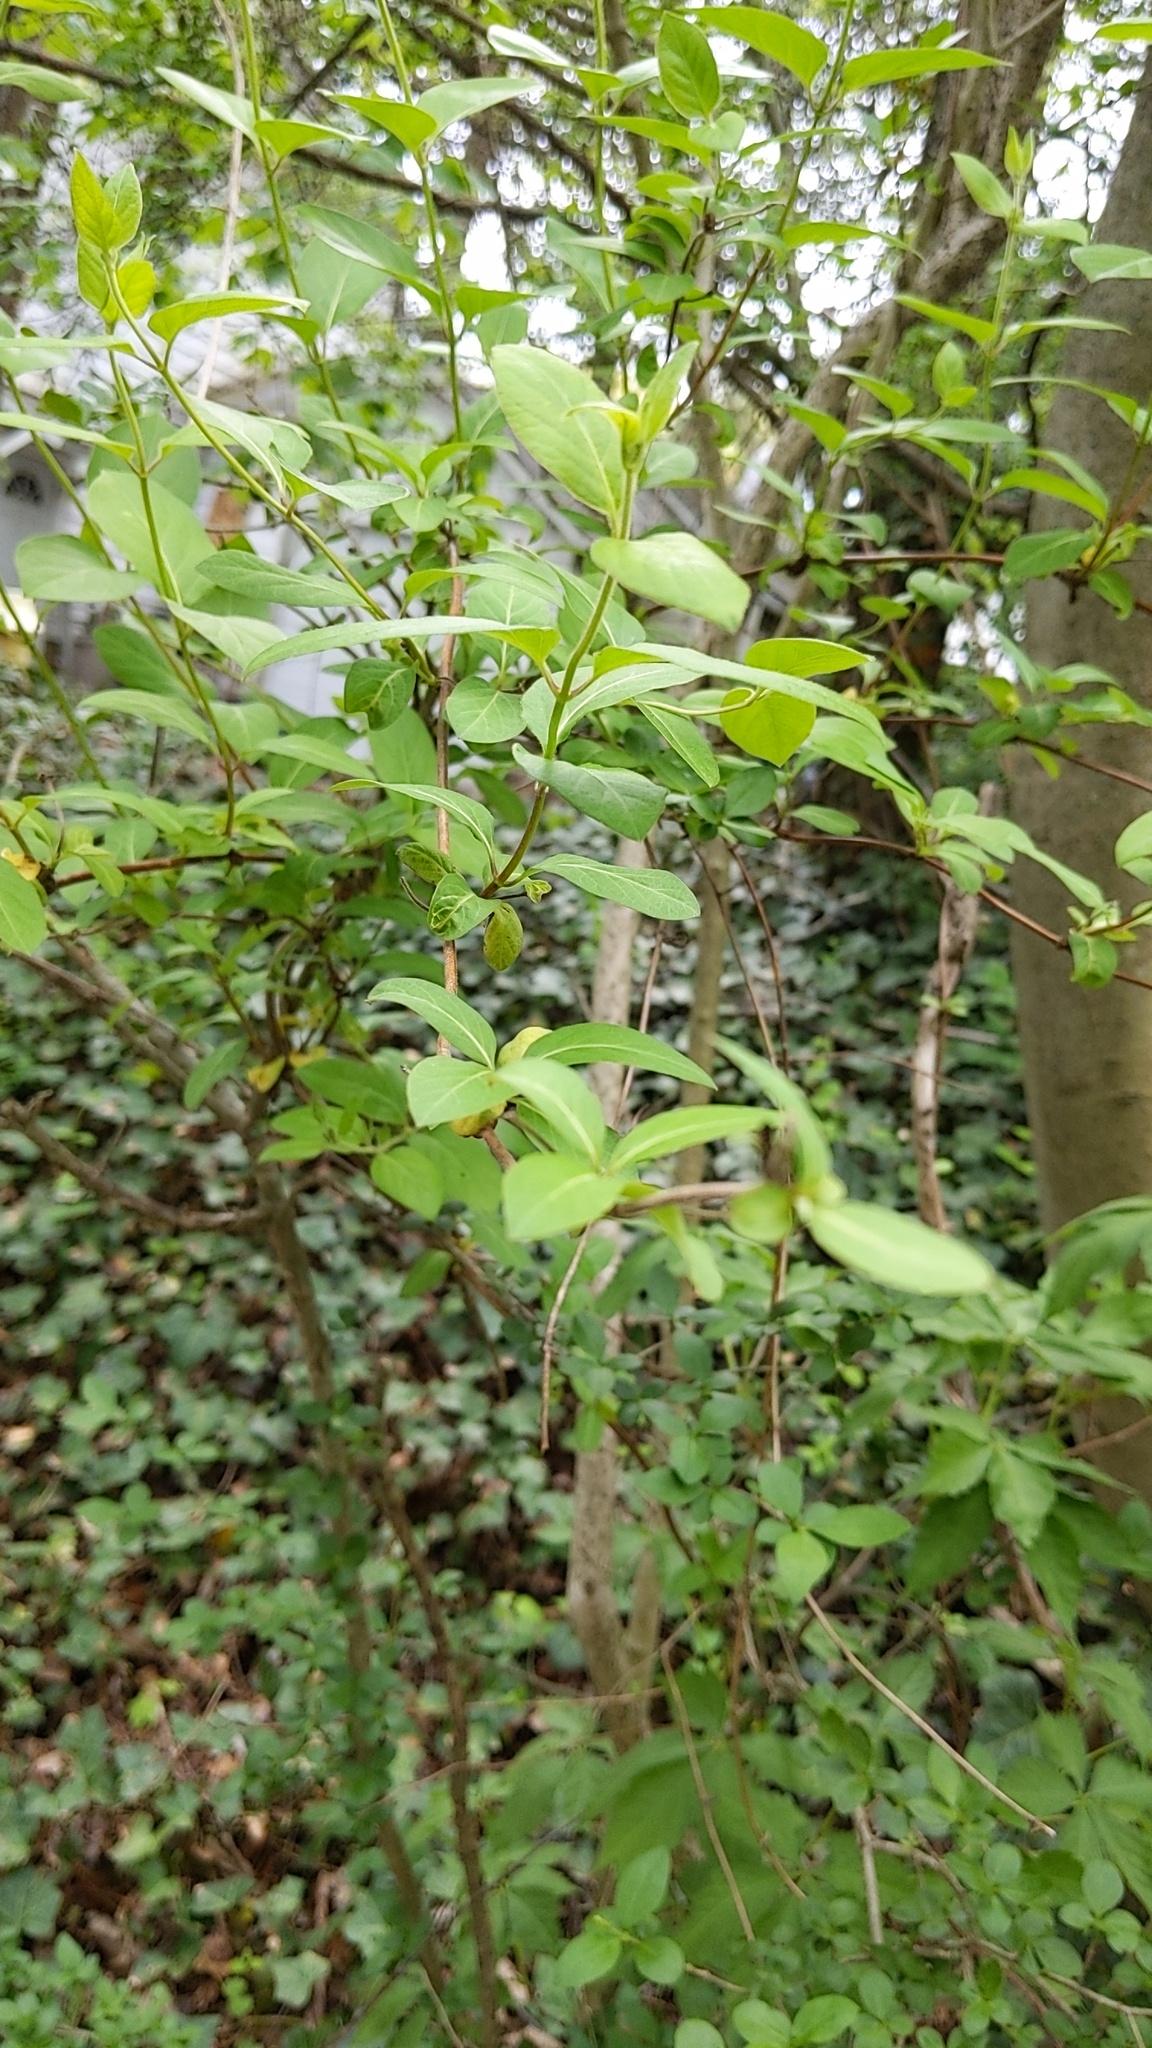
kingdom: Plantae
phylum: Tracheophyta
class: Magnoliopsida
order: Dipsacales
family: Caprifoliaceae
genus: Lonicera
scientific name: Lonicera japonica
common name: Japanese honeysuckle
